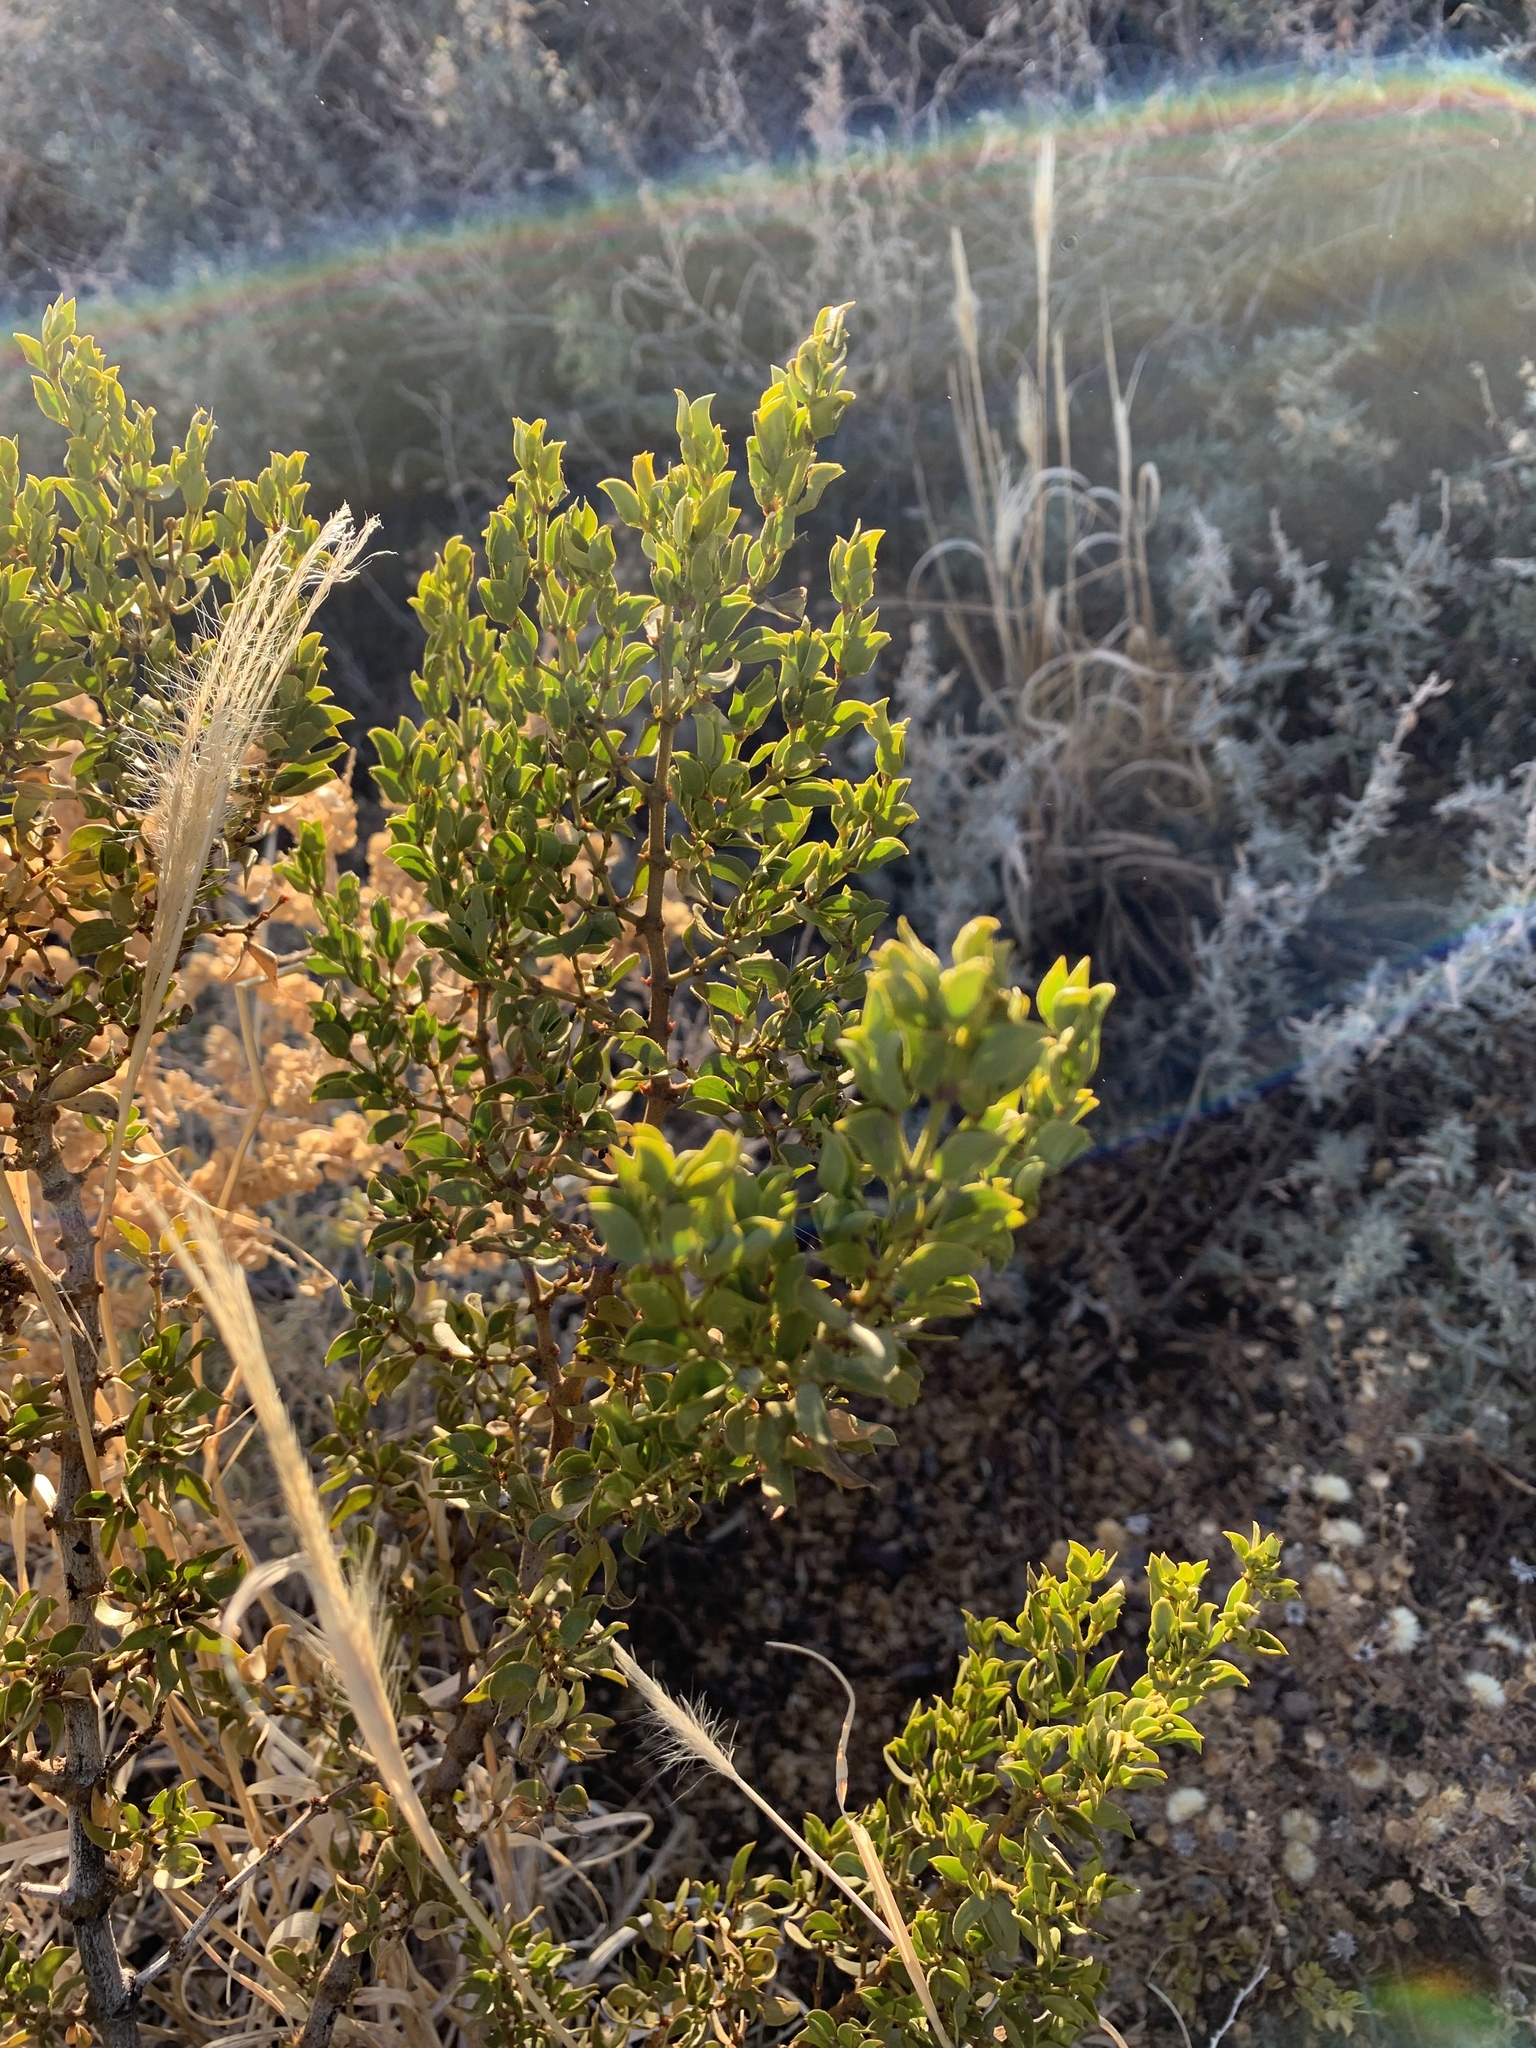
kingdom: Plantae
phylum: Tracheophyta
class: Magnoliopsida
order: Zygophyllales
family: Zygophyllaceae
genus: Larrea
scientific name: Larrea tridentata
